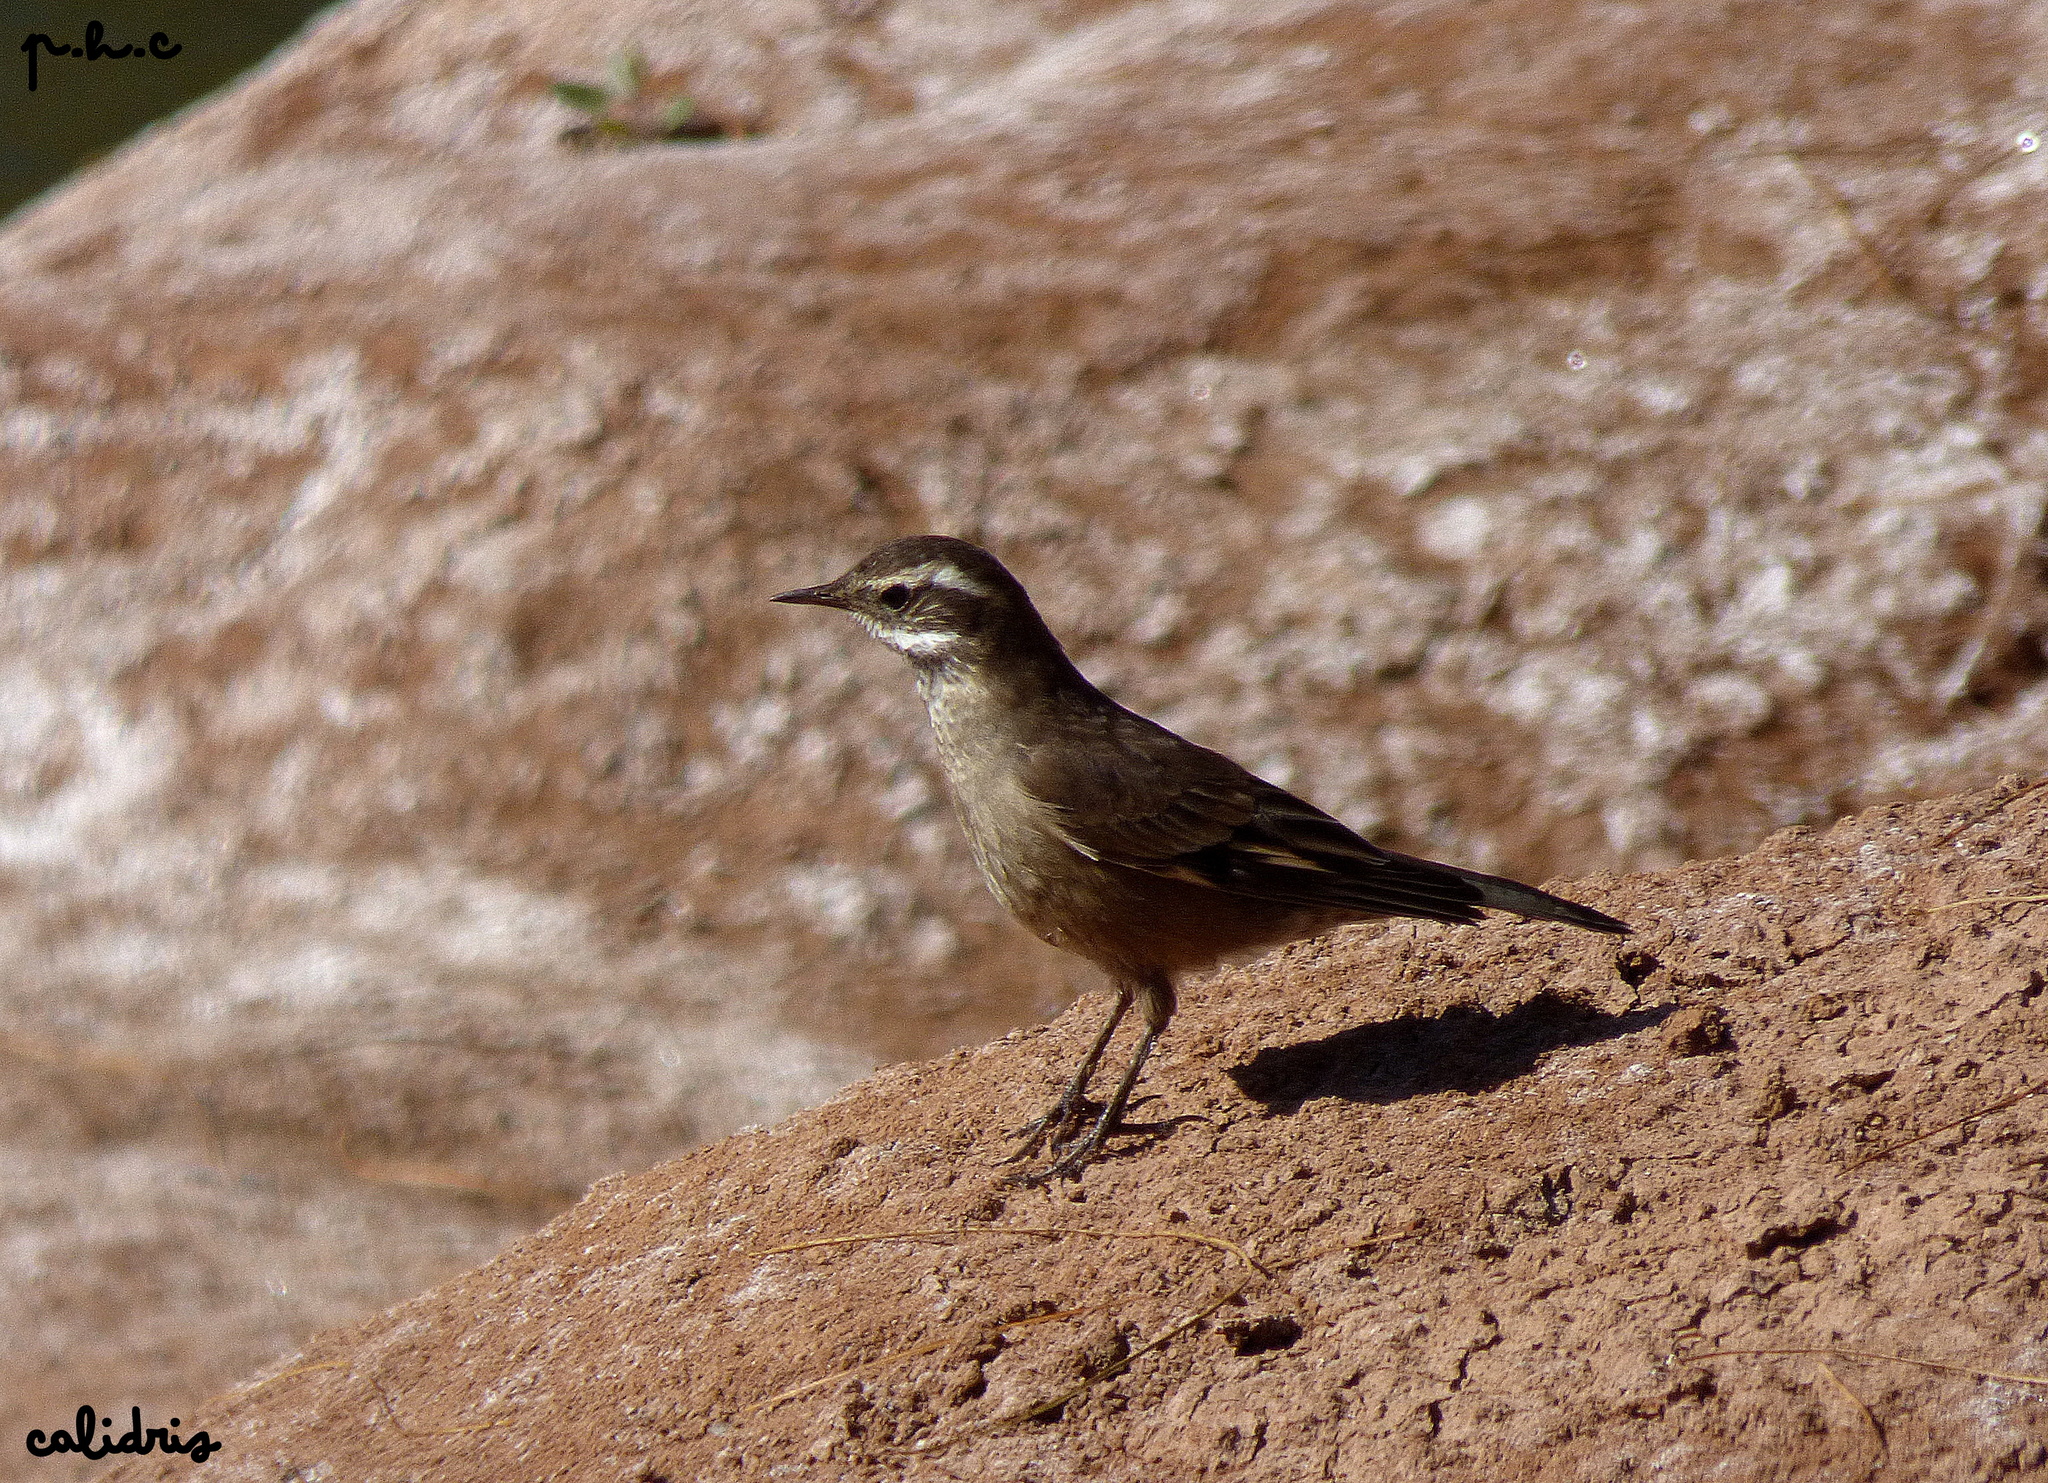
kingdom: Animalia
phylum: Chordata
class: Aves
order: Passeriformes
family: Furnariidae
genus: Cinclodes
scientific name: Cinclodes fuscus
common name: Buff-winged cinclodes
